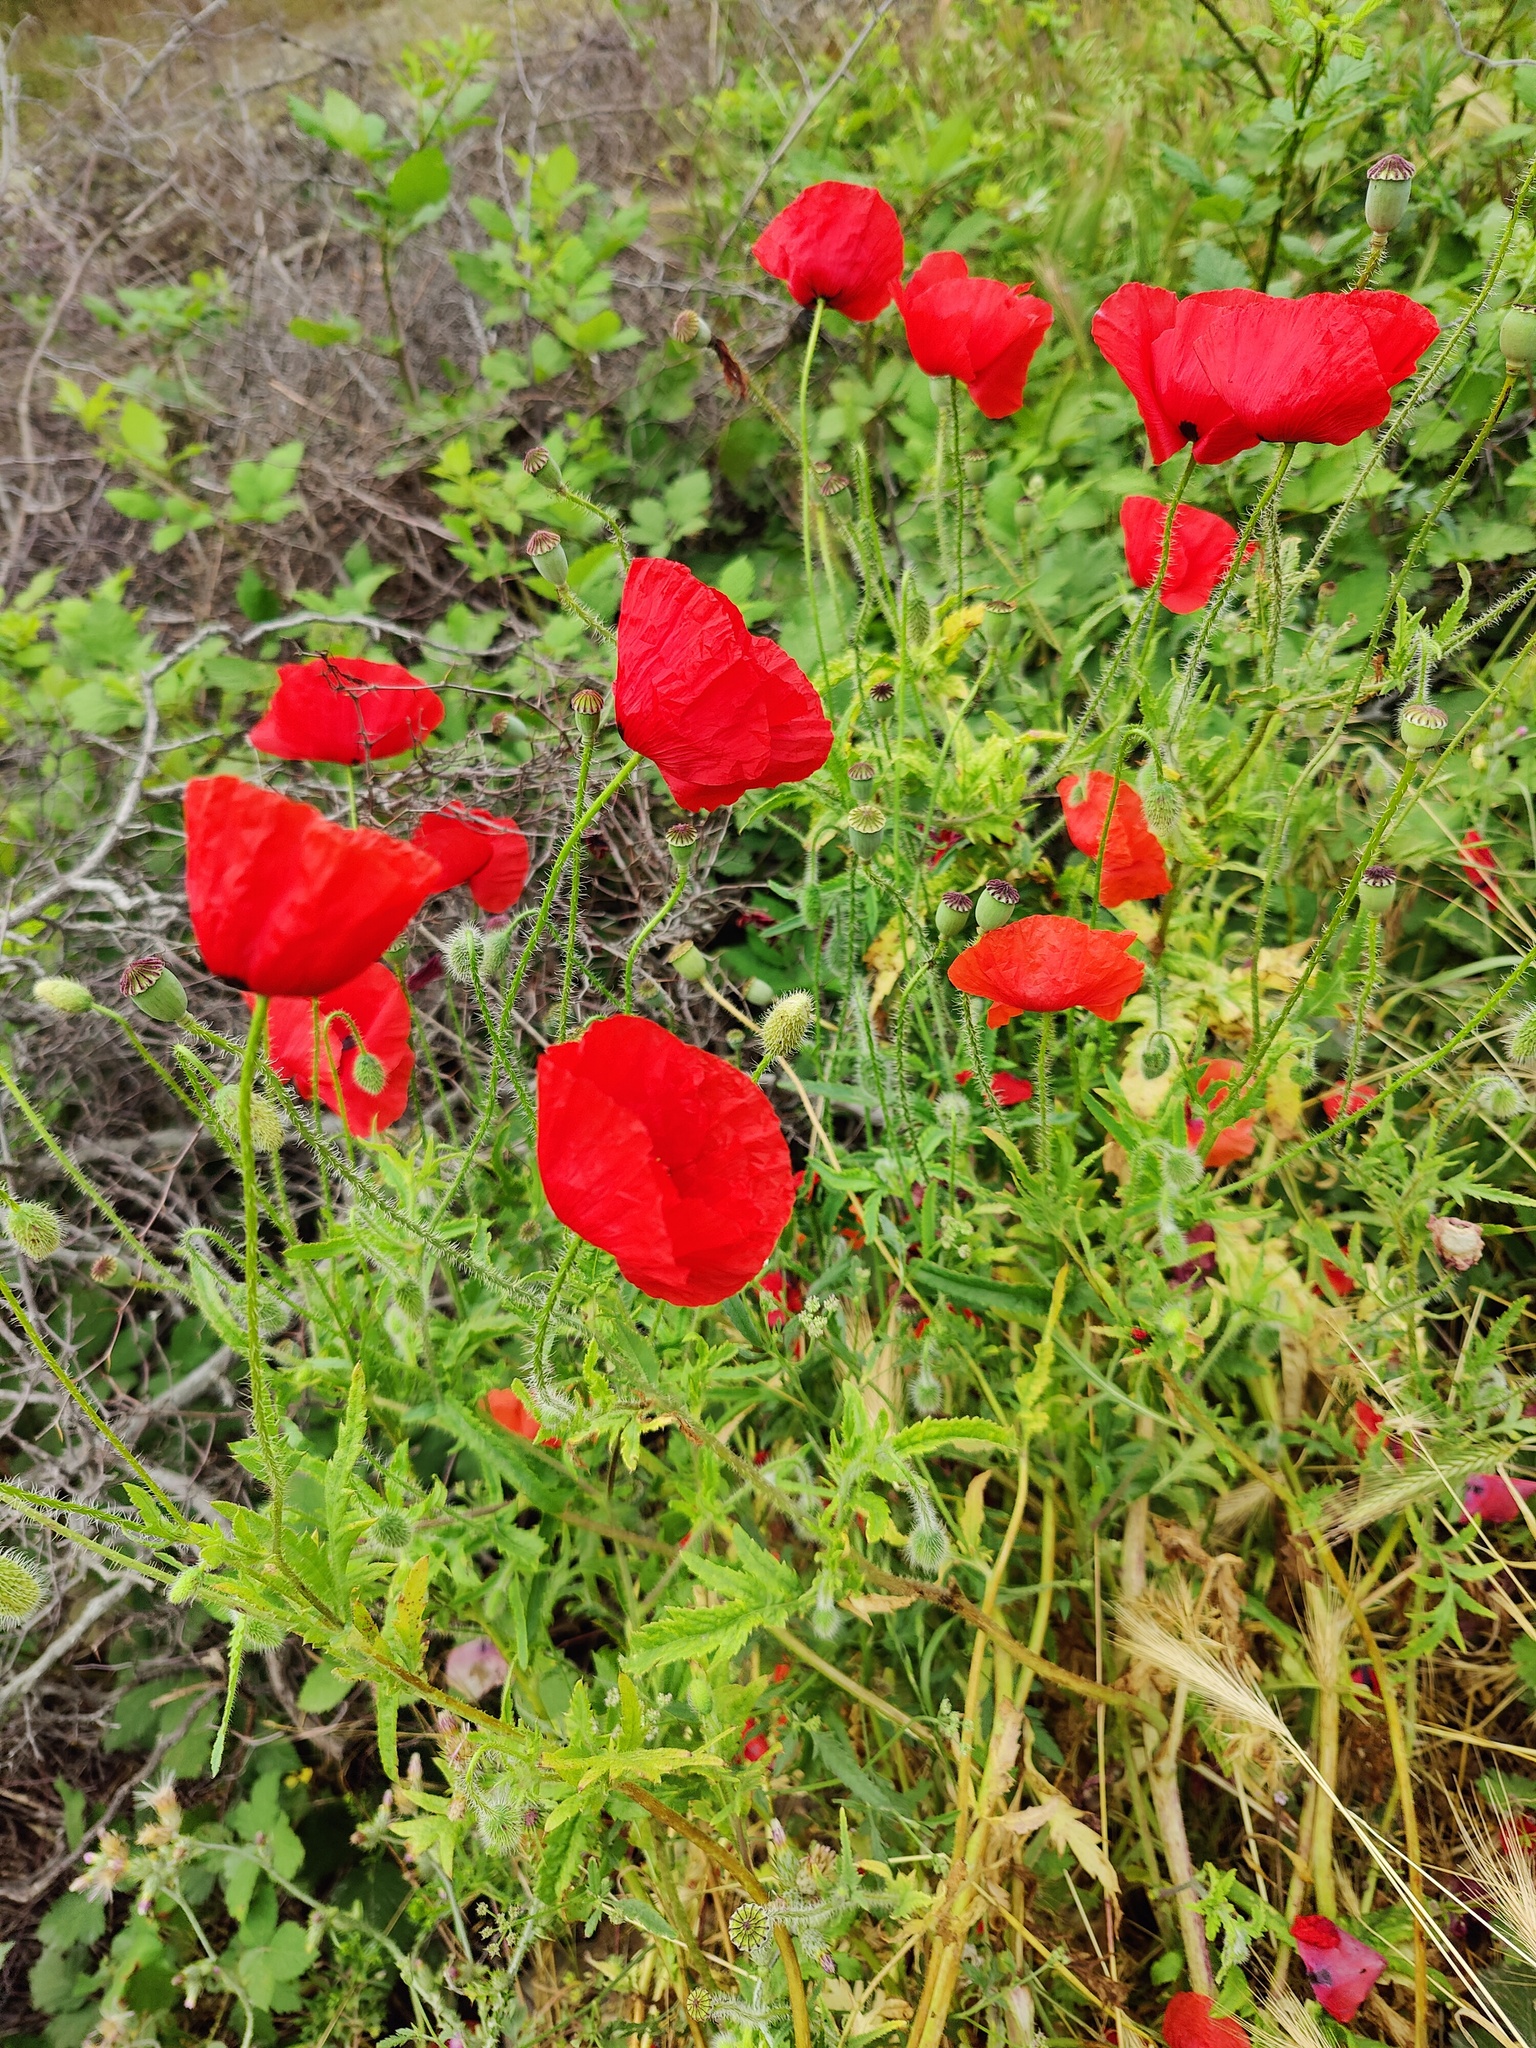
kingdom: Plantae
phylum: Tracheophyta
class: Magnoliopsida
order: Ranunculales
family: Papaveraceae
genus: Papaver
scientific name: Papaver rhoeas
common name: Corn poppy
